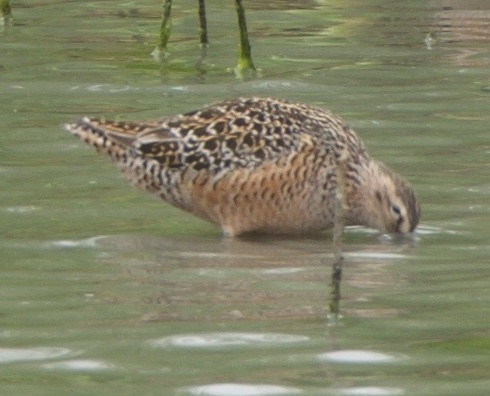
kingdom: Animalia
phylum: Chordata
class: Aves
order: Charadriiformes
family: Scolopacidae
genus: Limnodromus
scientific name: Limnodromus scolopaceus
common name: Long-billed dowitcher
